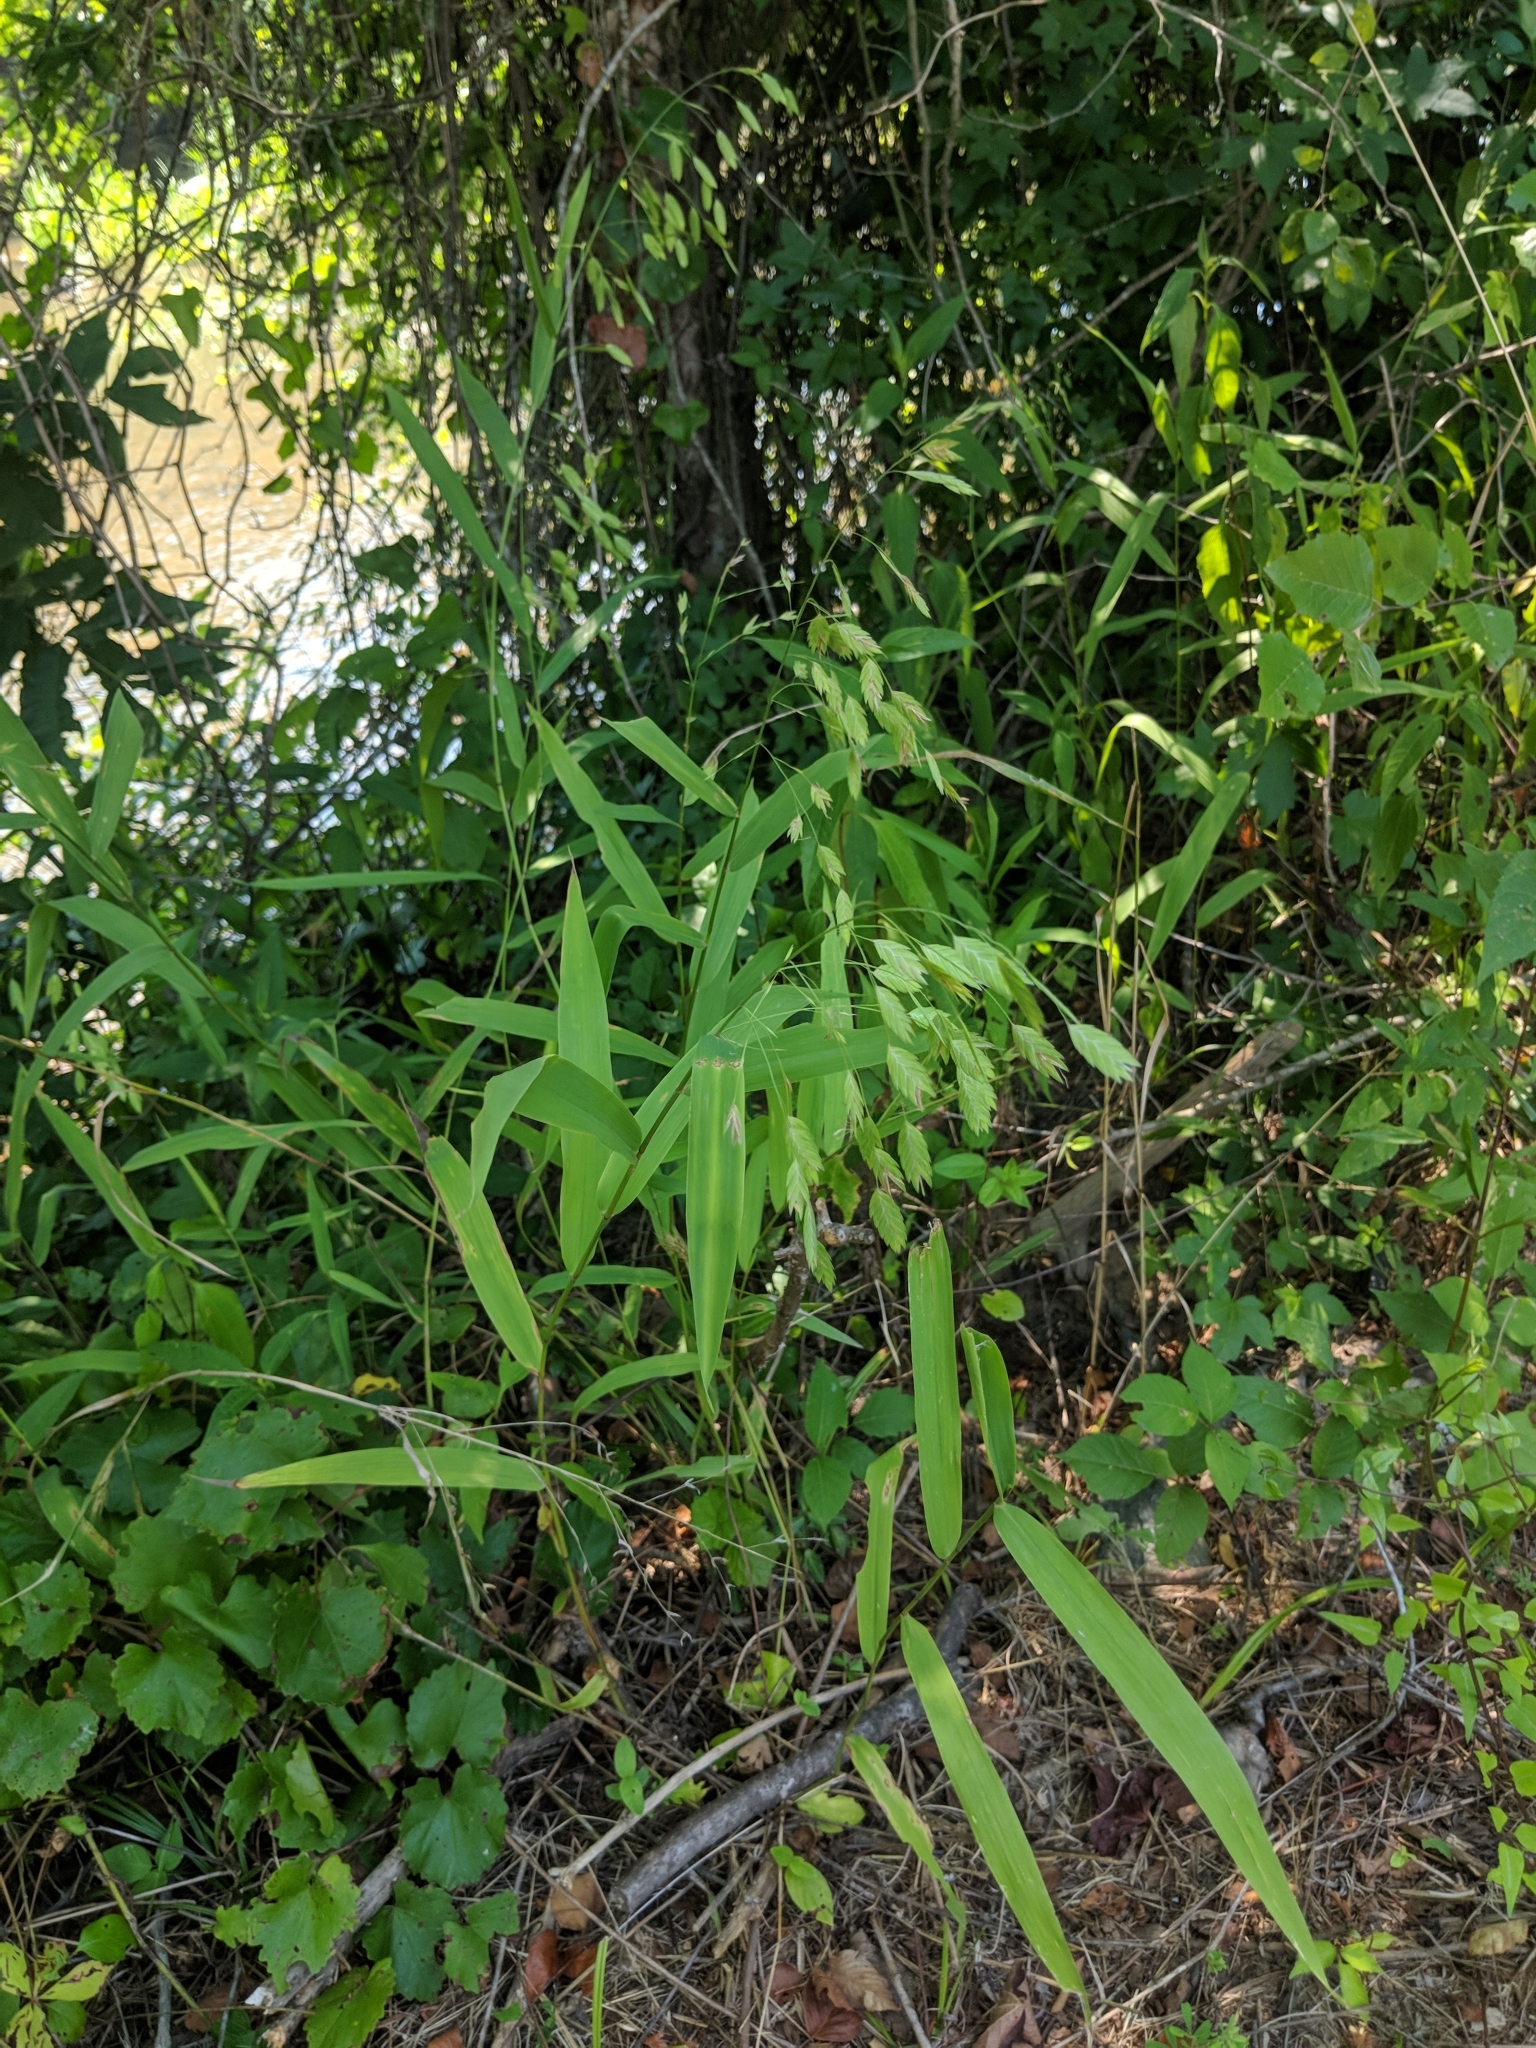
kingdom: Plantae
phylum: Tracheophyta
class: Liliopsida
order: Poales
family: Poaceae
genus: Chasmanthium
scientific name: Chasmanthium latifolium
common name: Broad-leaved chasmanthium
